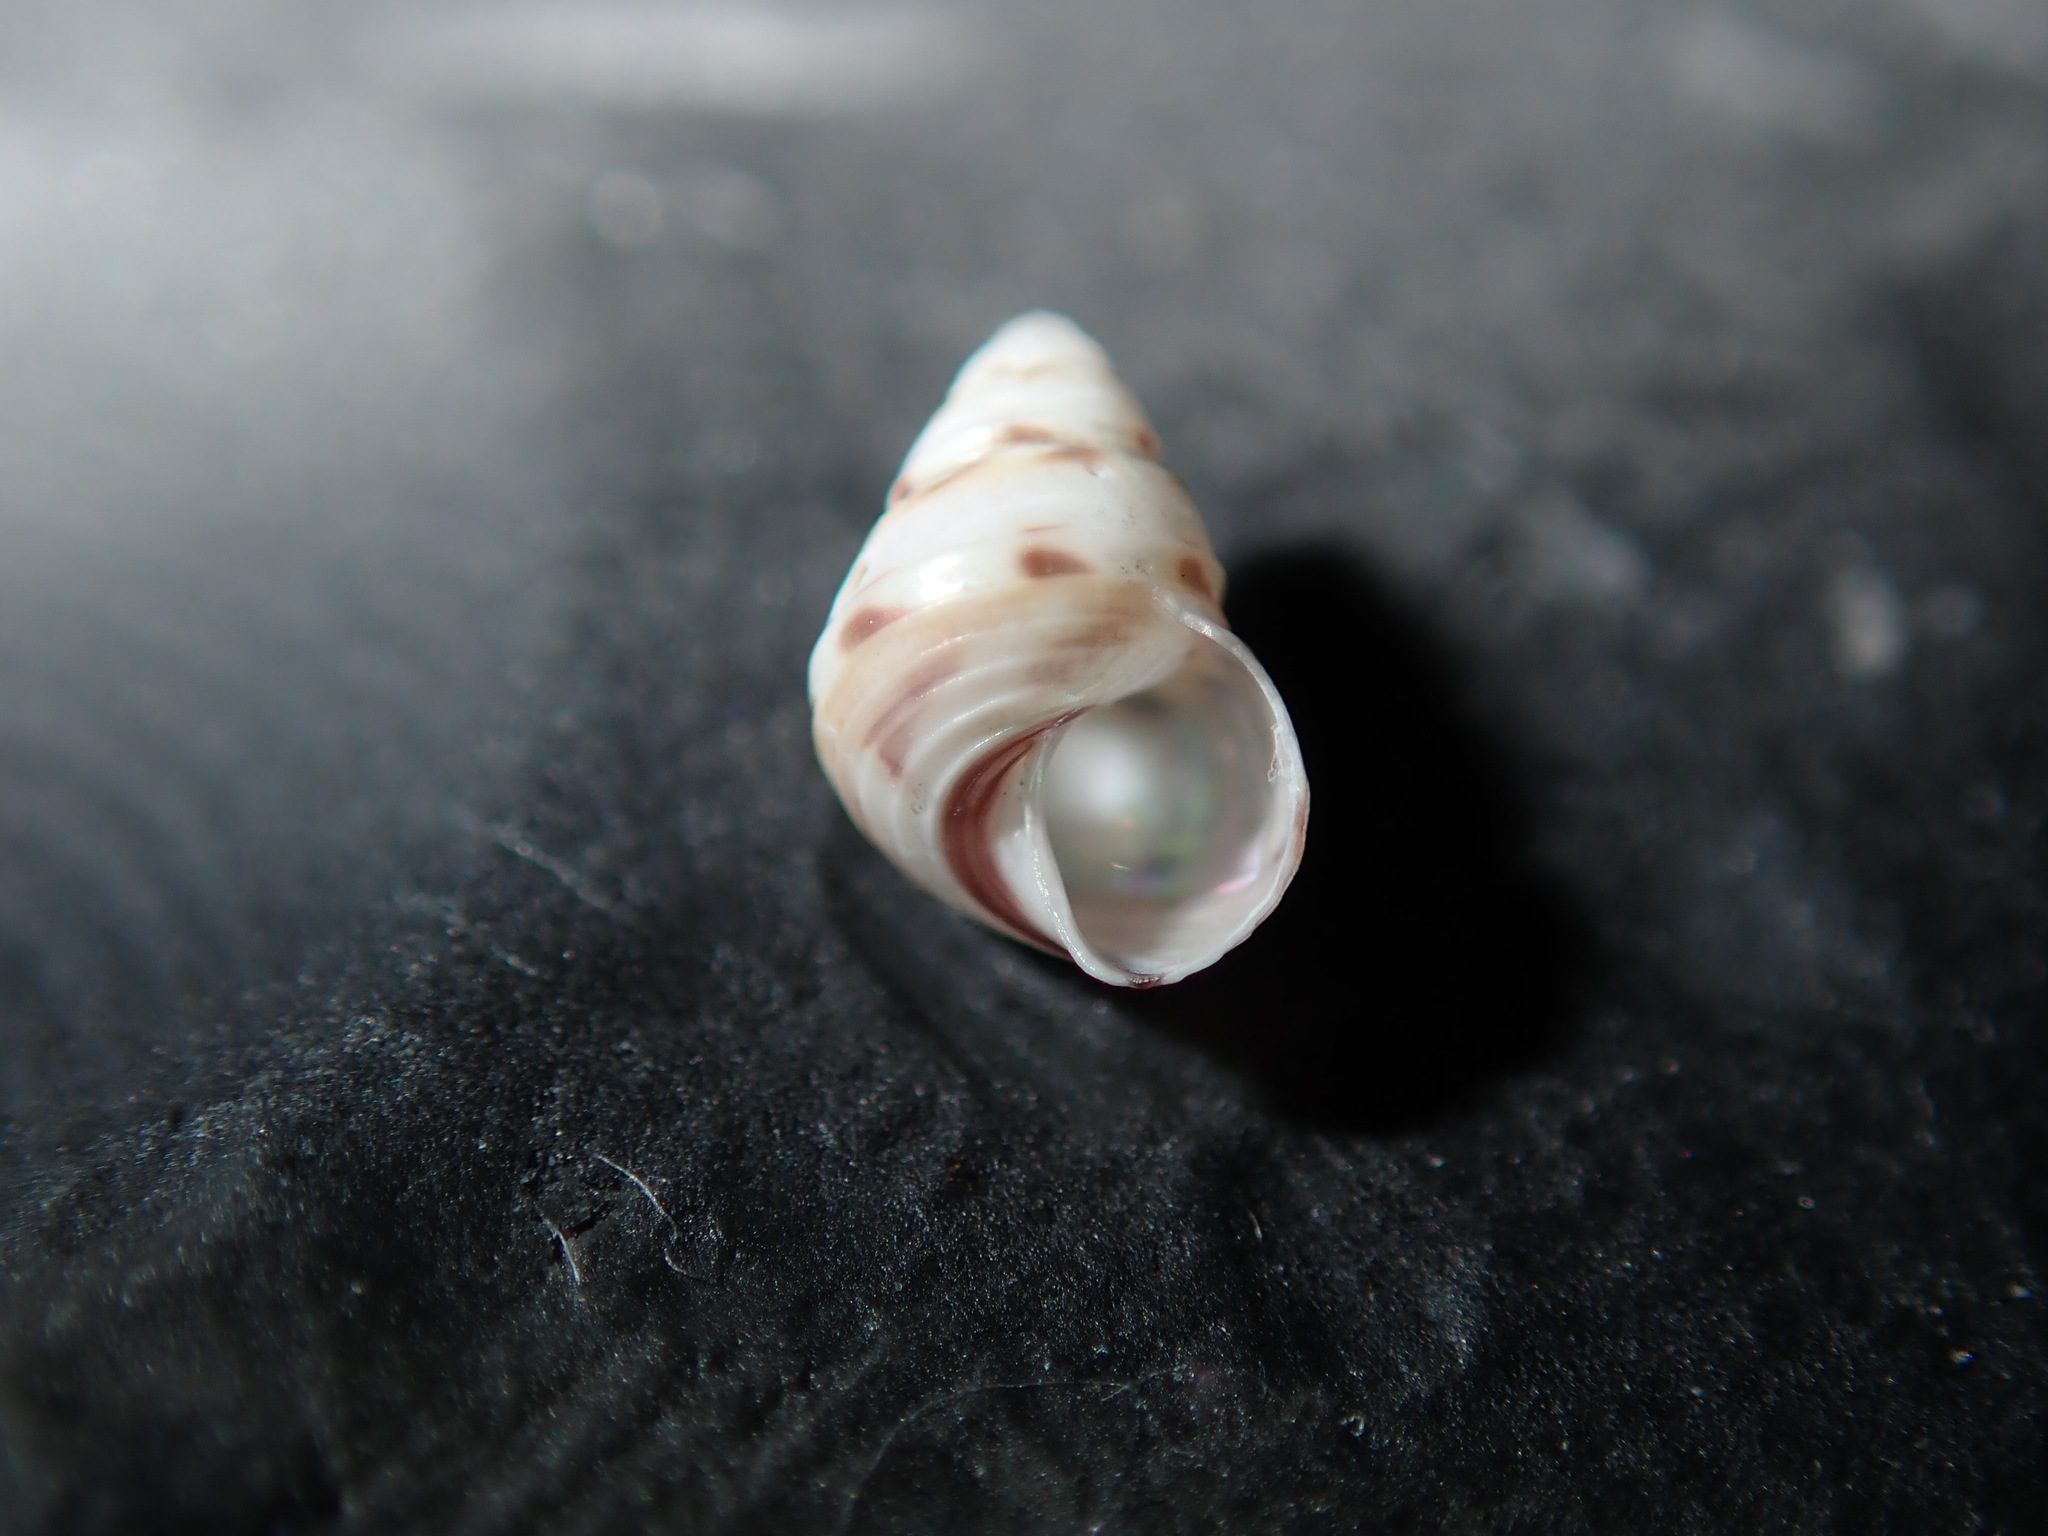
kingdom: Animalia
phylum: Mollusca
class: Gastropoda
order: Trochida
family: Trochidae
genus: Leiopyrga
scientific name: Leiopyrga cingulata
